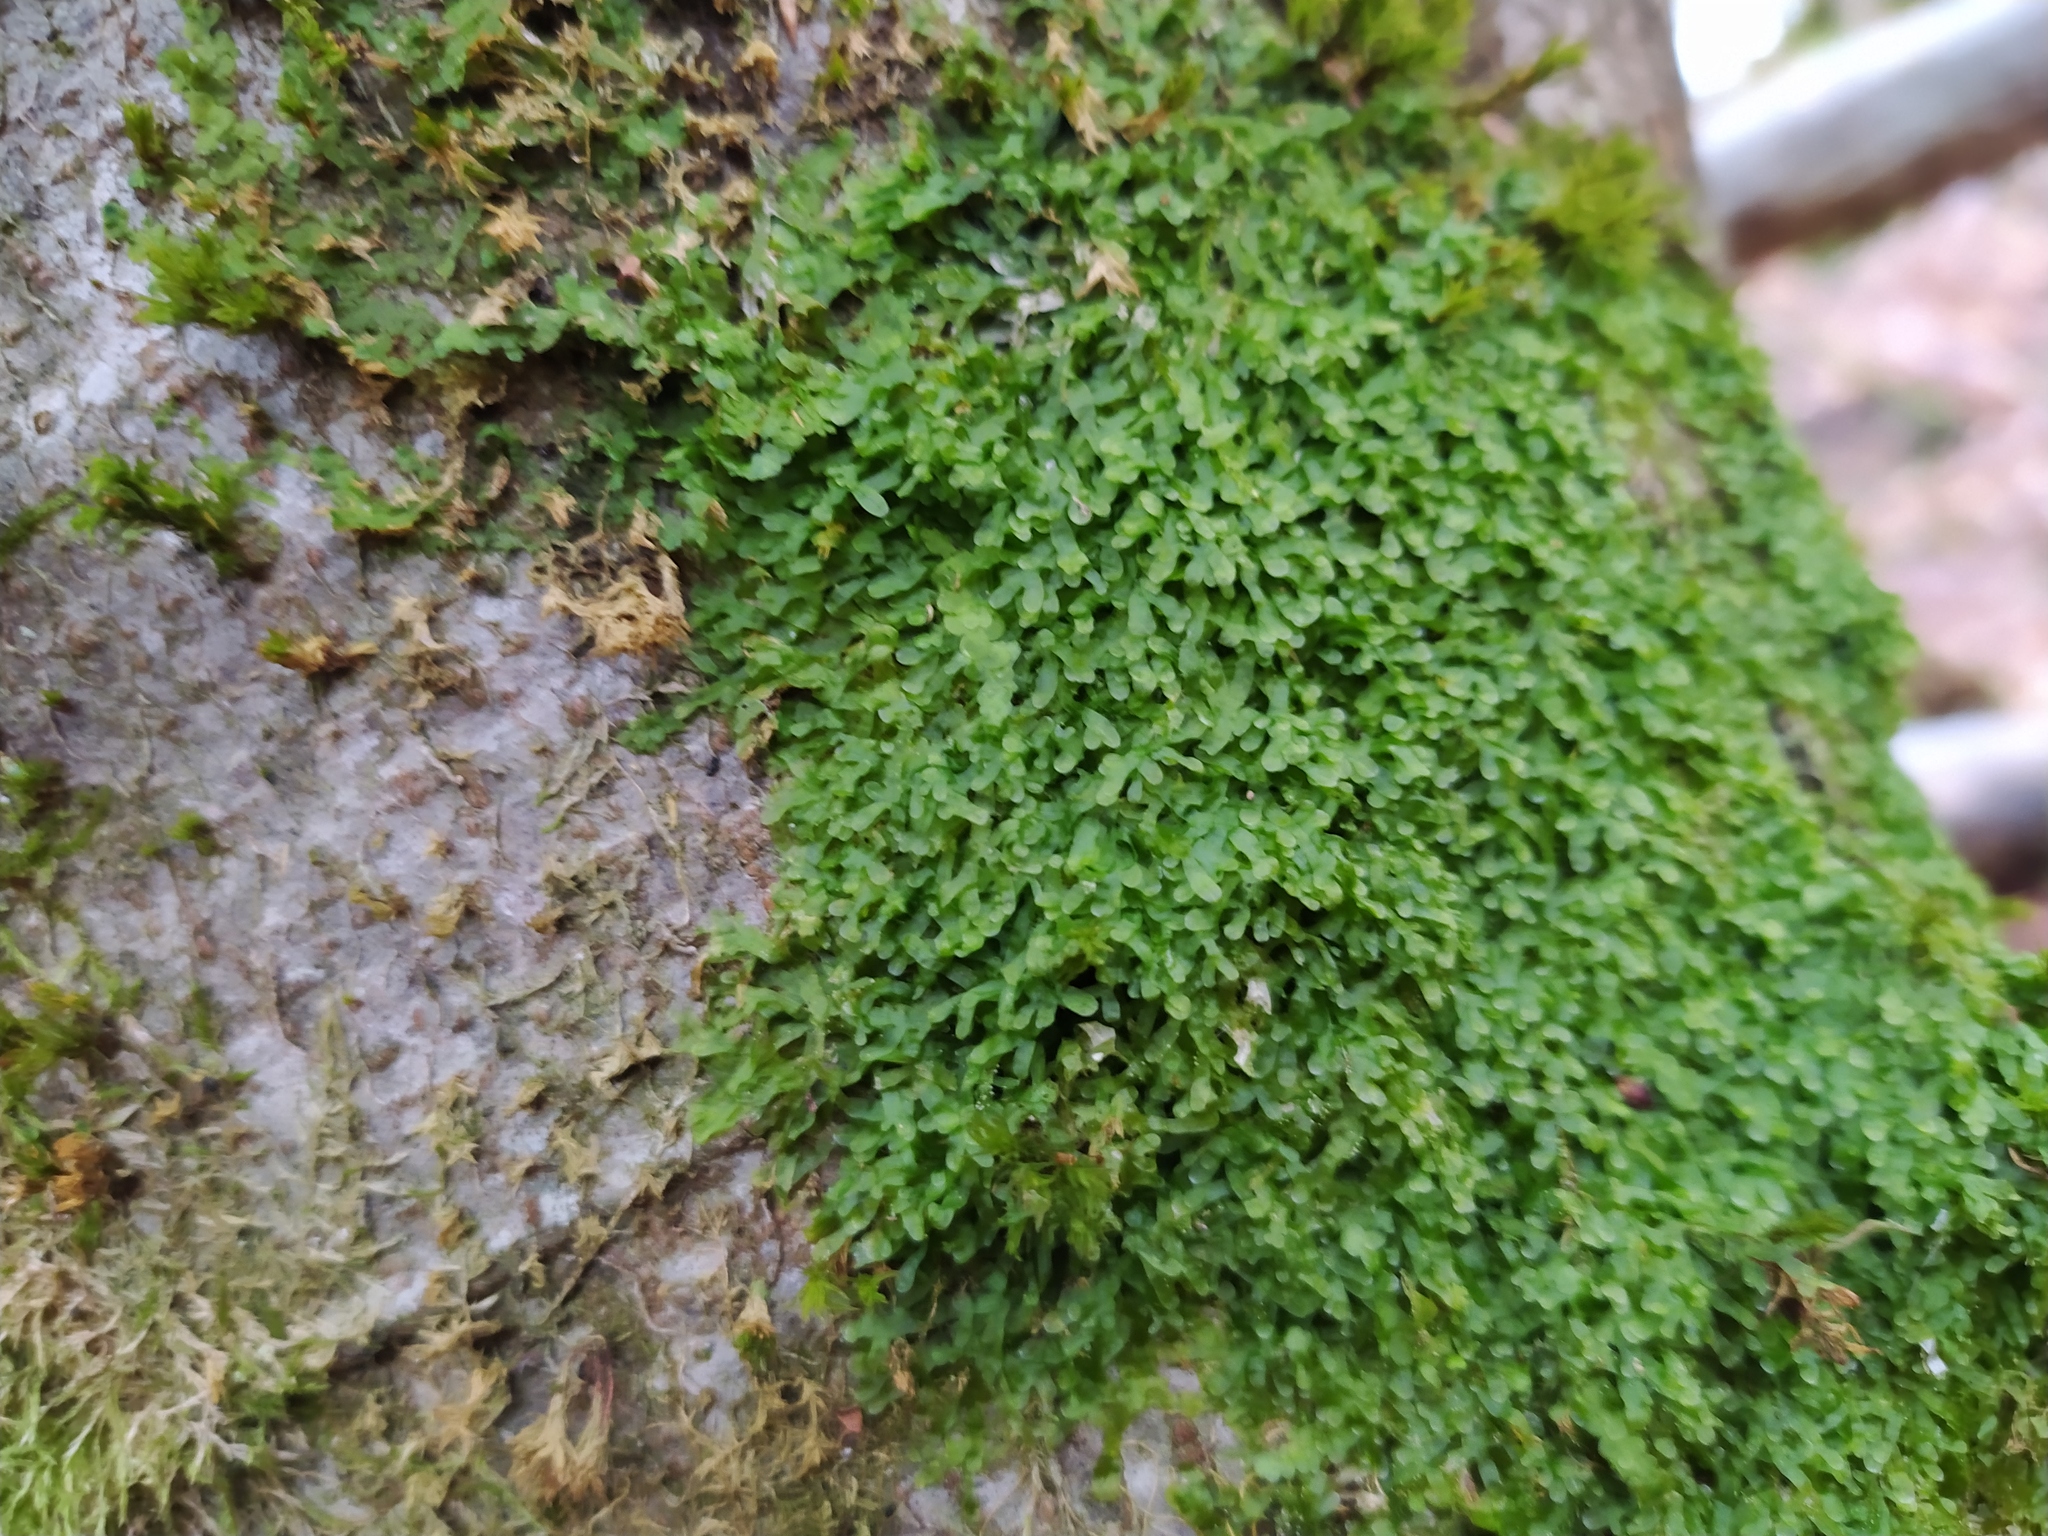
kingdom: Plantae
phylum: Marchantiophyta
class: Jungermanniopsida
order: Metzgeriales
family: Metzgeriaceae
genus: Metzgeria
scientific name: Metzgeria furcata
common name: Forked veilwort
